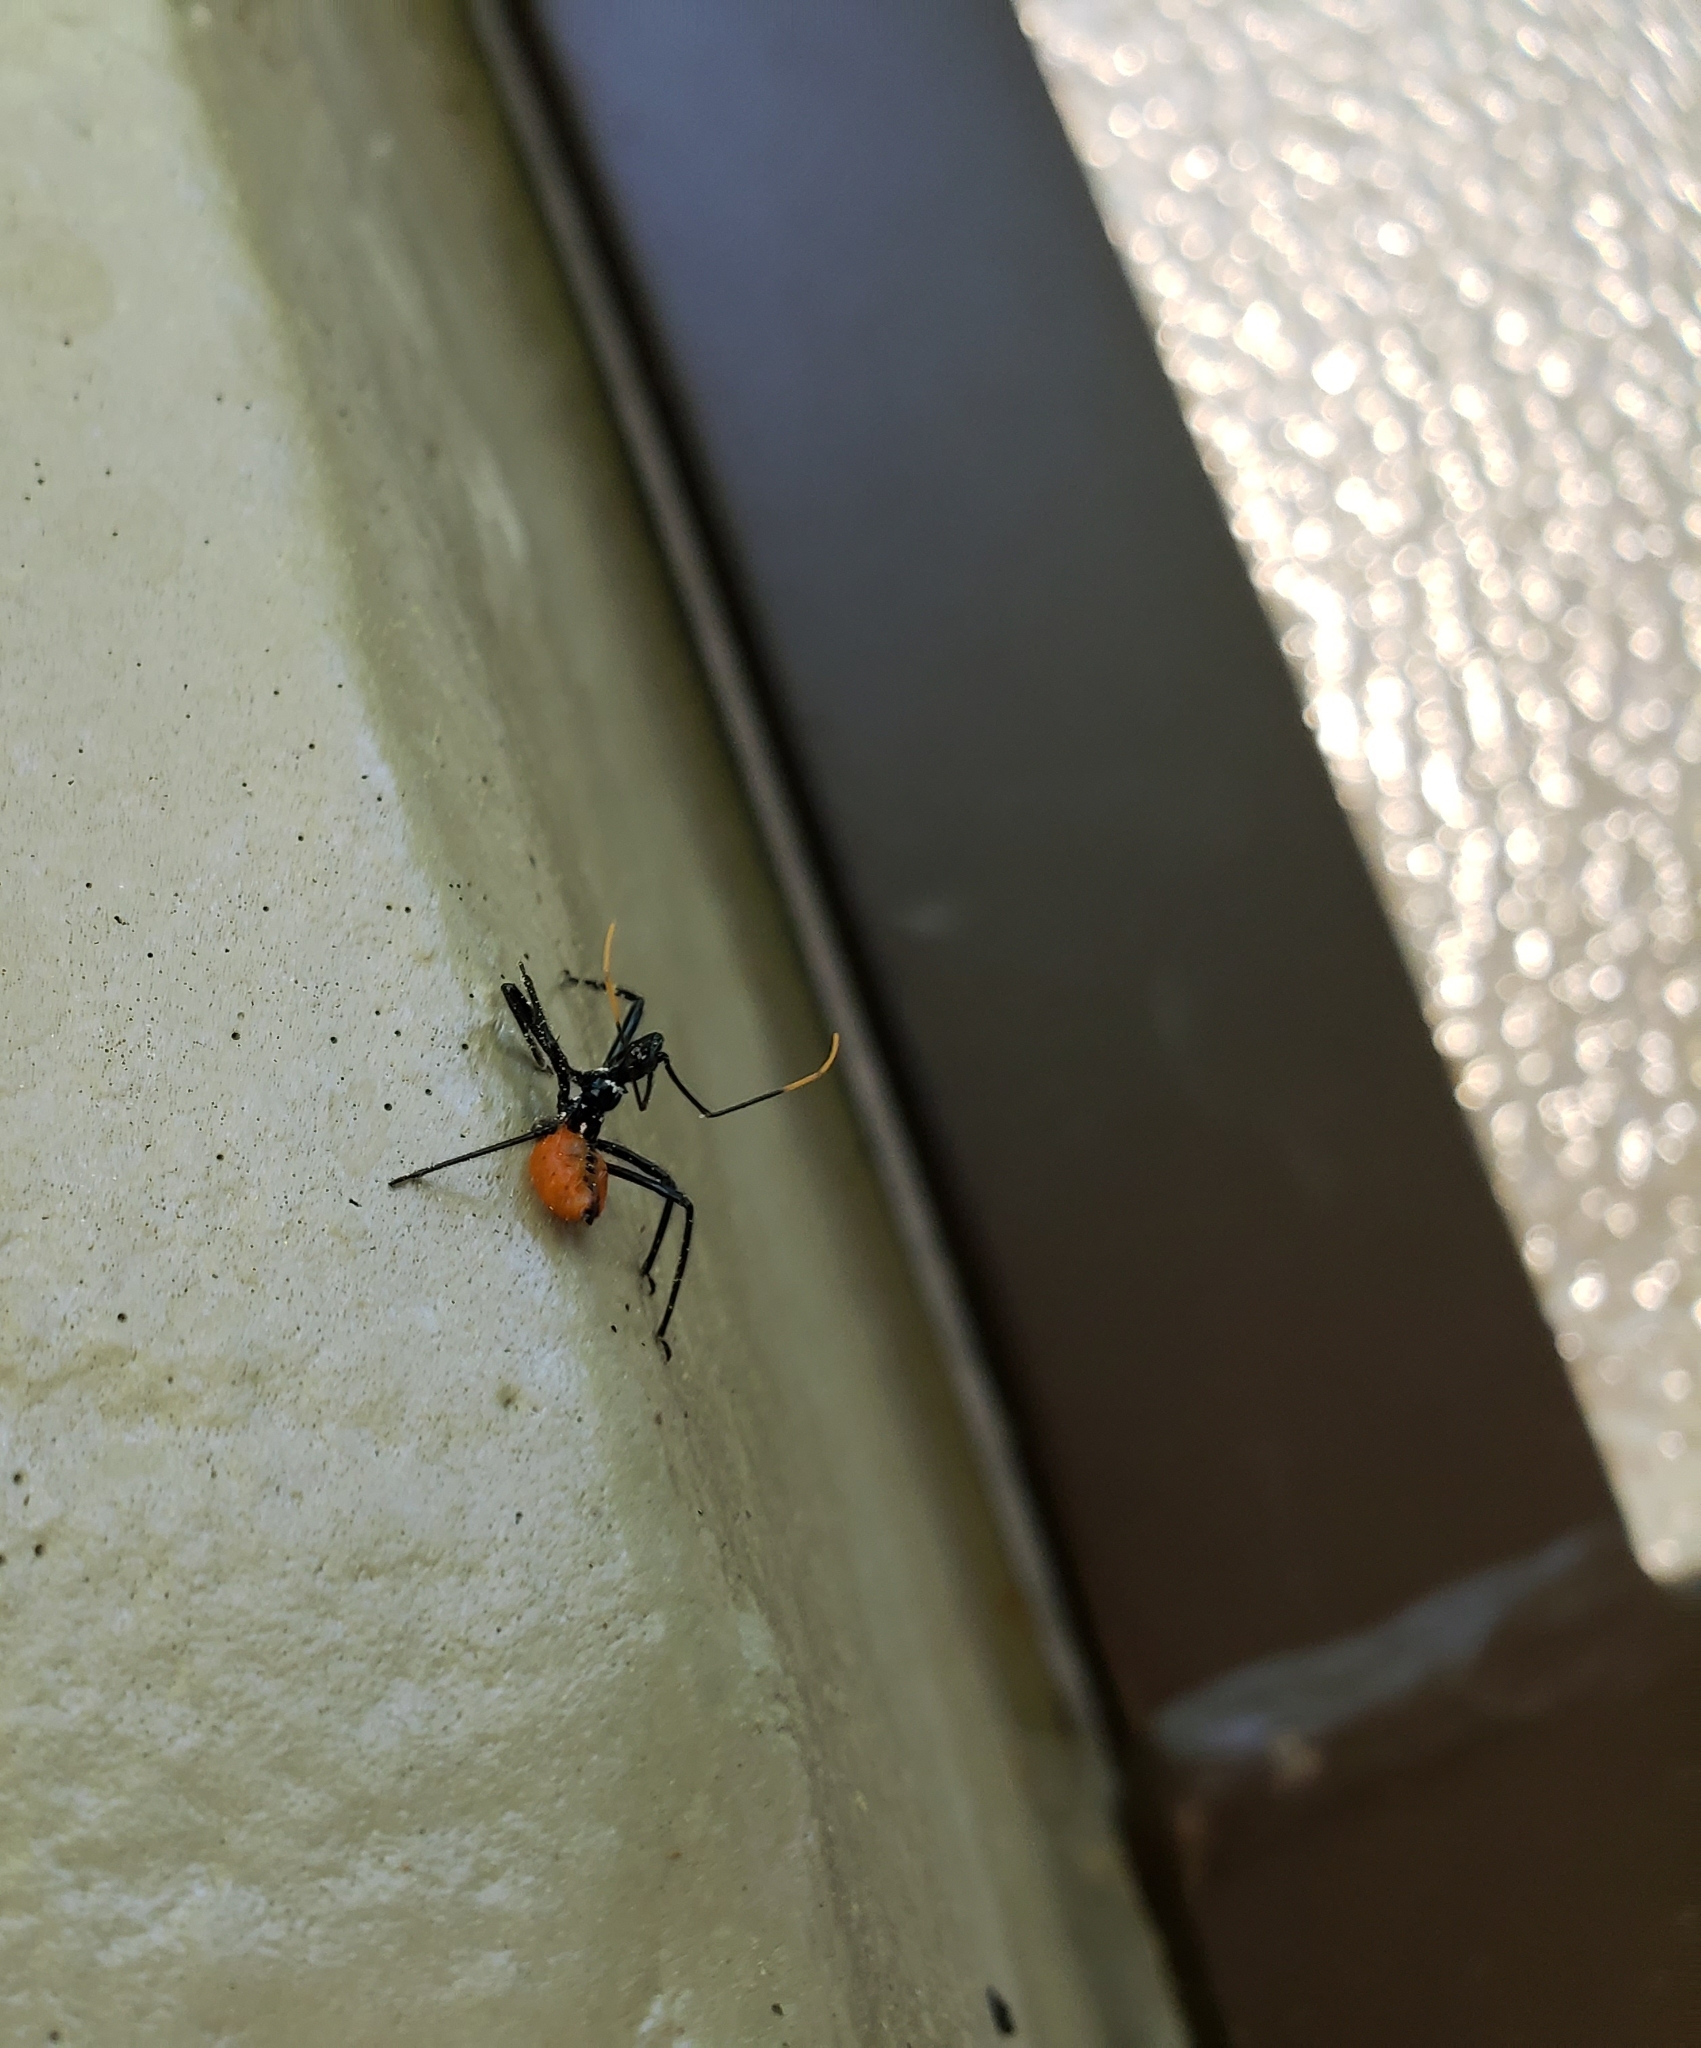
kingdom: Animalia
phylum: Arthropoda
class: Insecta
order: Hemiptera
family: Reduviidae
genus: Arilus
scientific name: Arilus cristatus
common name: North american wheel bug
